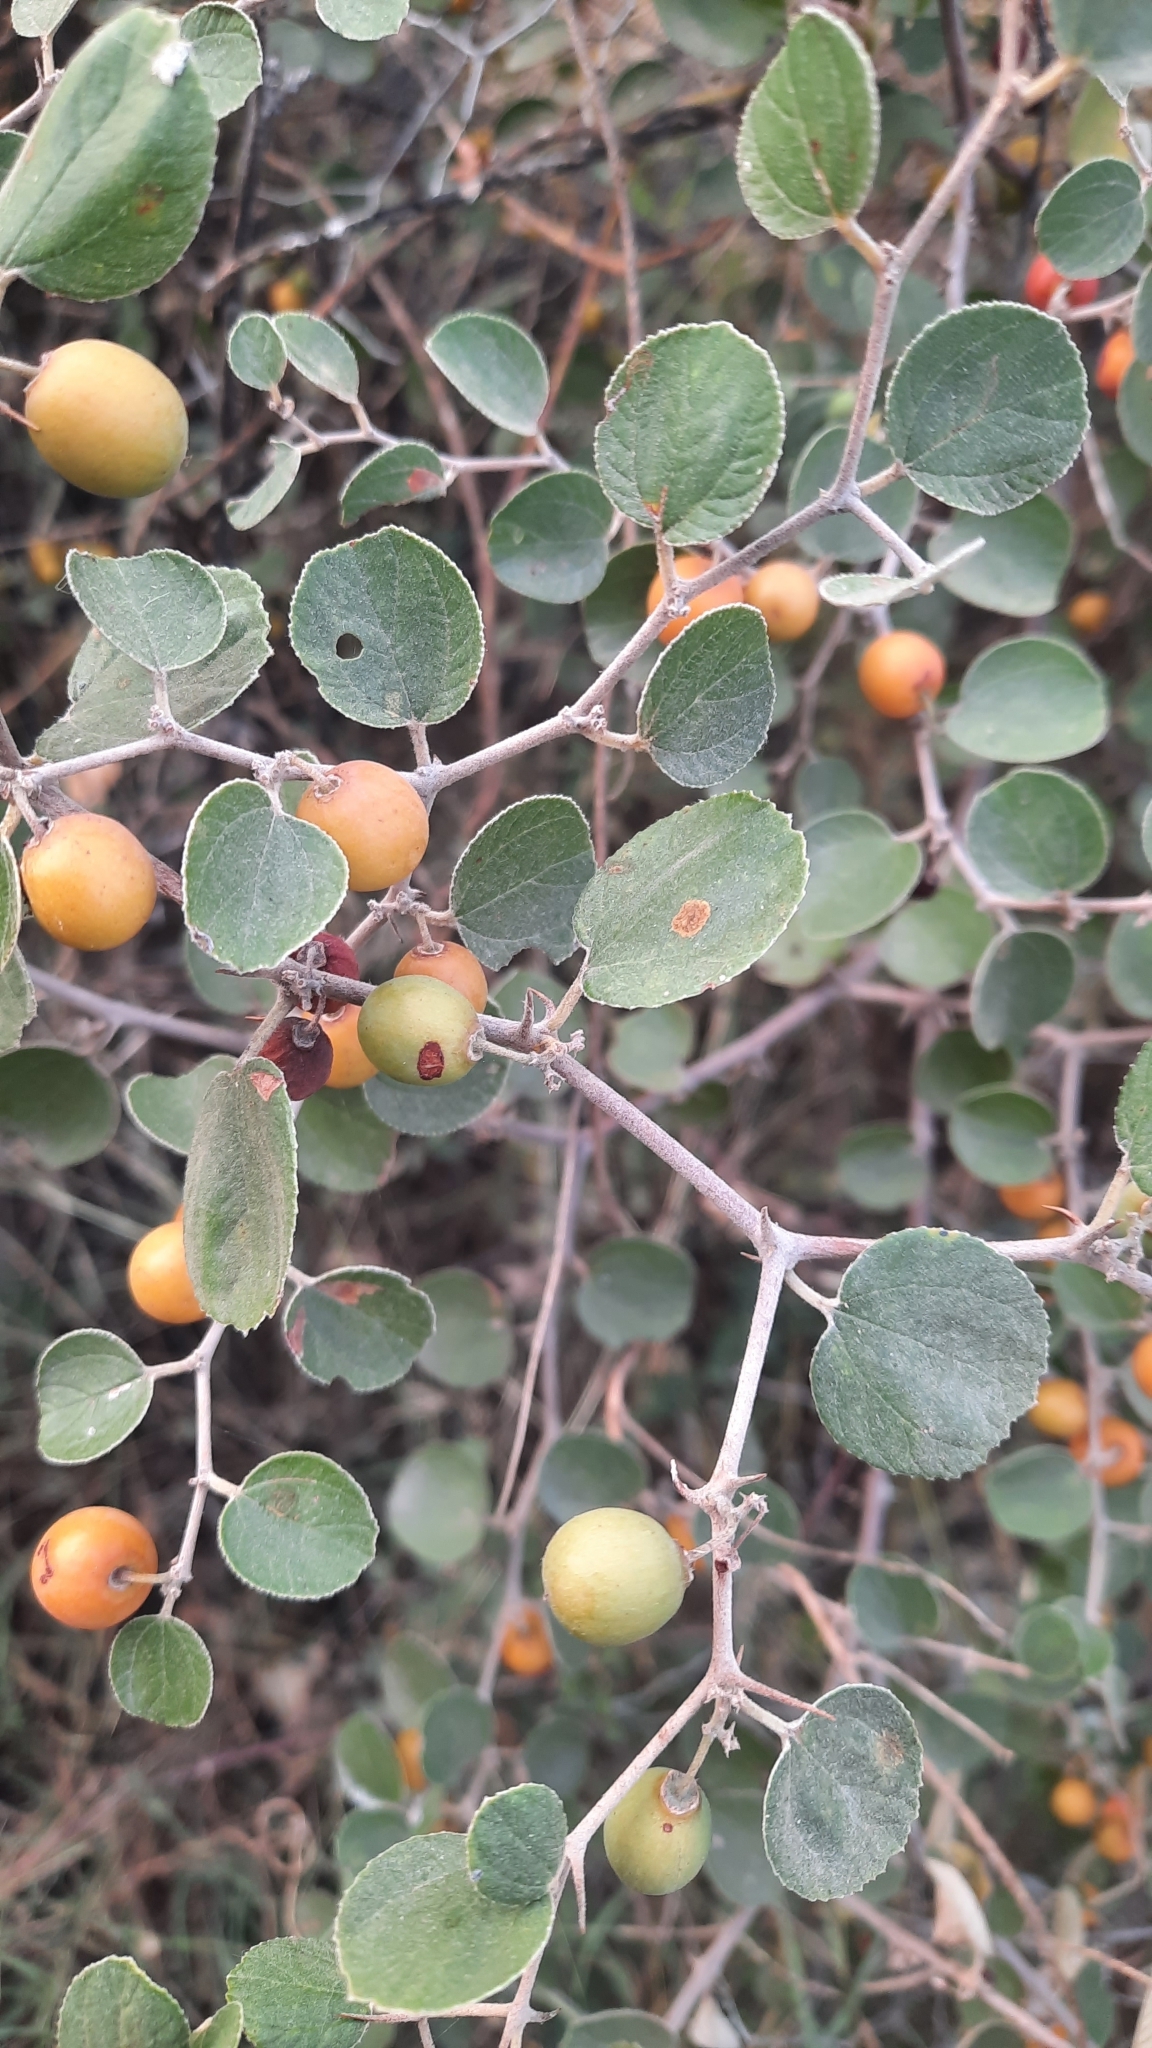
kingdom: Plantae
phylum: Tracheophyta
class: Magnoliopsida
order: Rosales
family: Rhamnaceae
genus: Ziziphus
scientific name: Ziziphus nummularia
